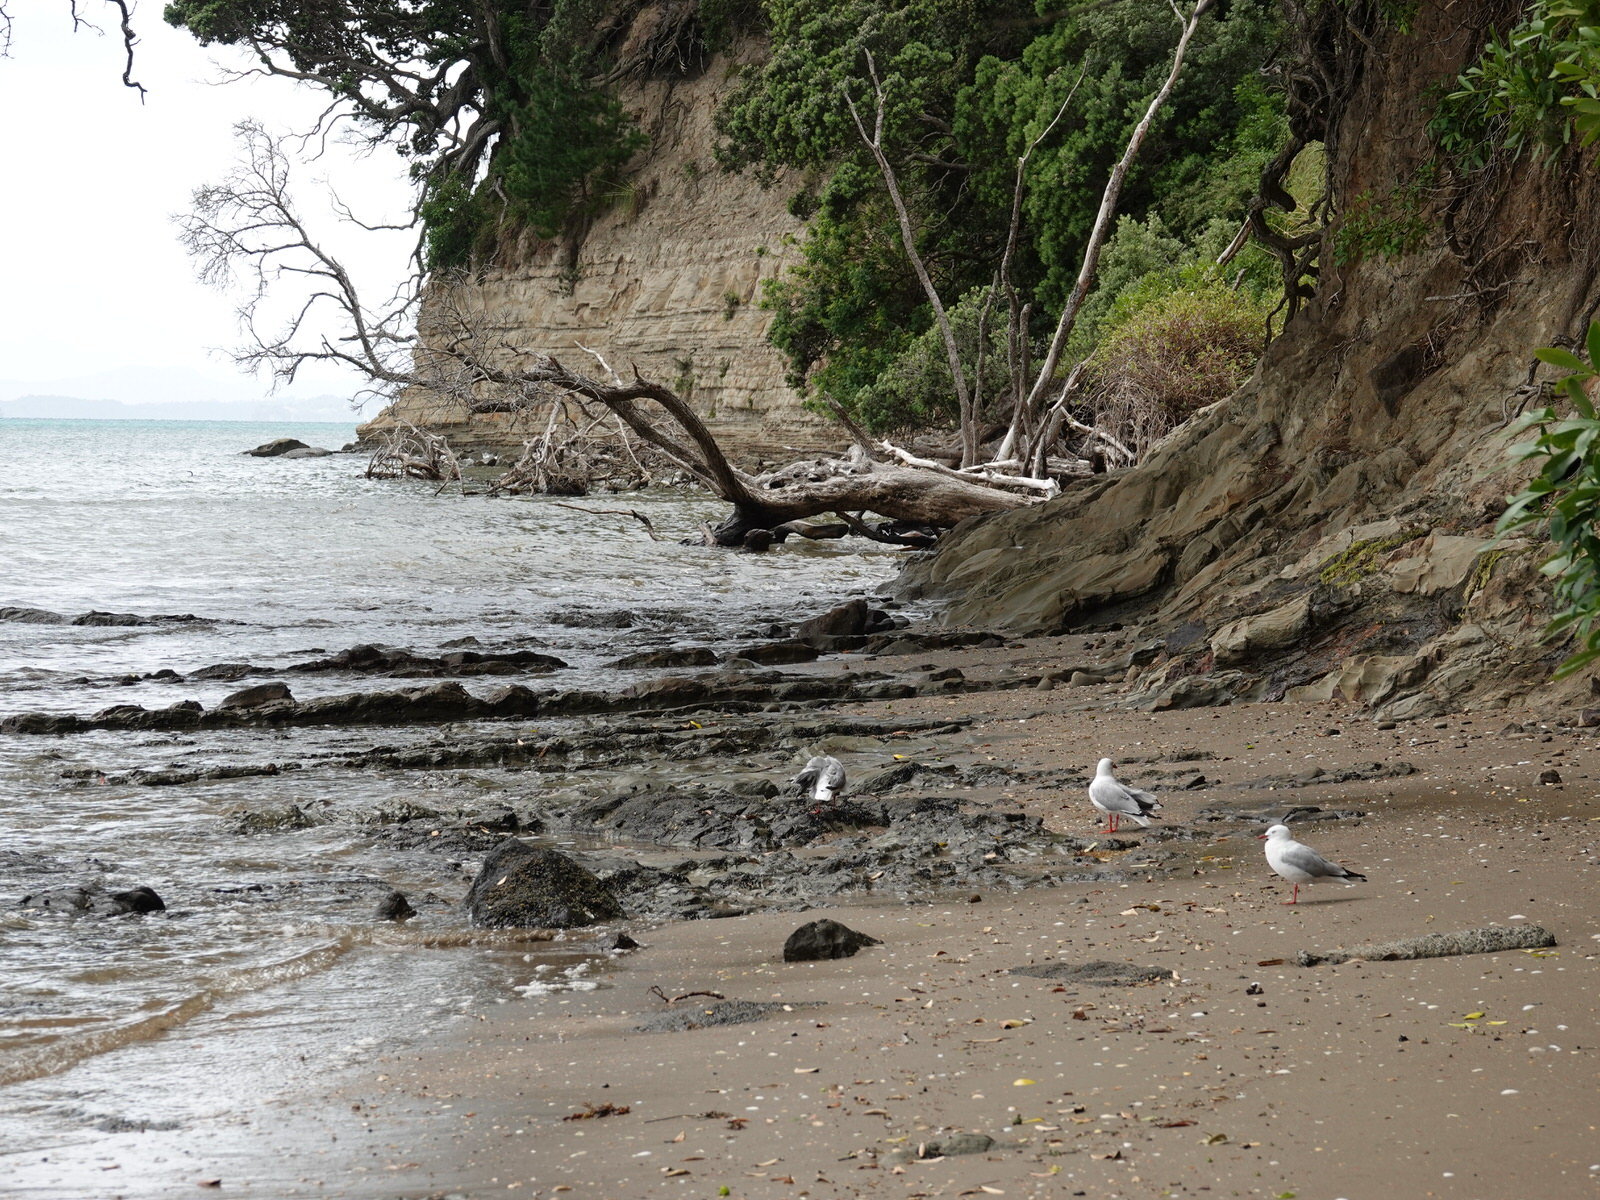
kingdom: Animalia
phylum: Chordata
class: Aves
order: Charadriiformes
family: Laridae
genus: Chroicocephalus
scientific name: Chroicocephalus novaehollandiae
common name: Silver gull
